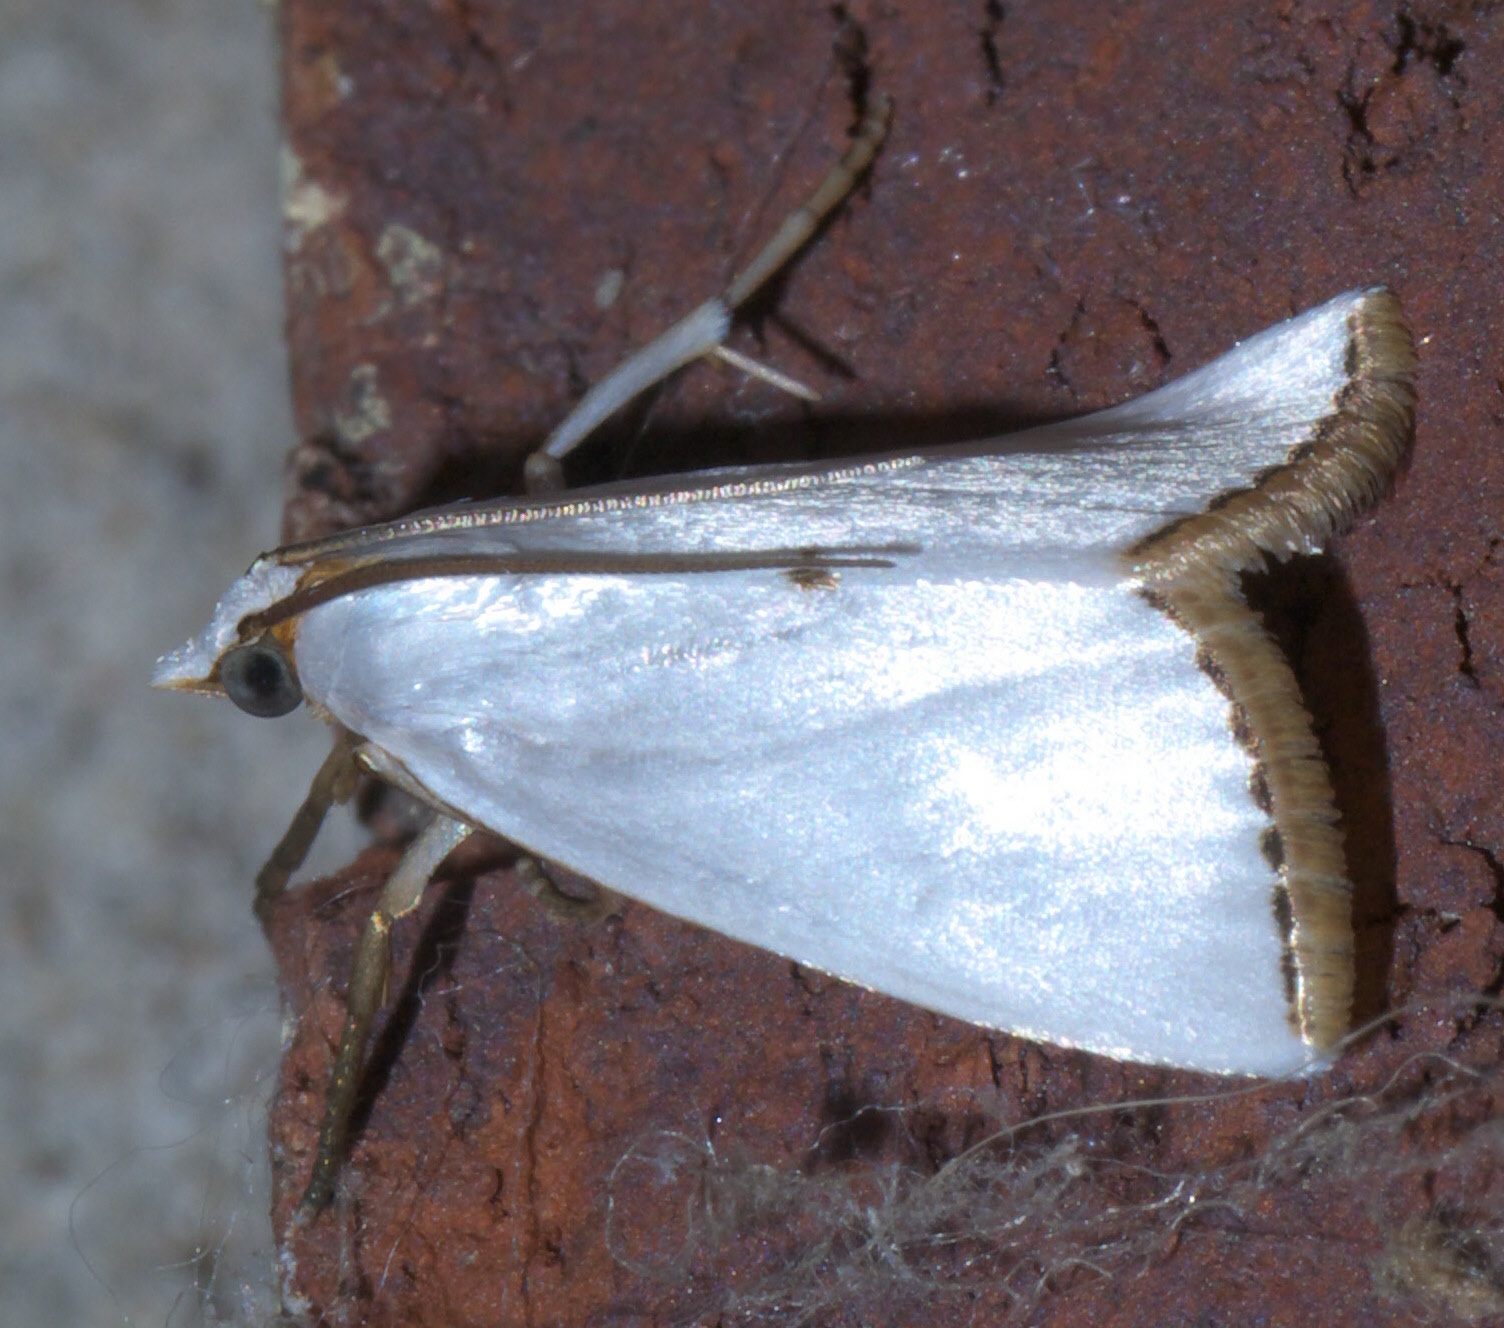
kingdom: Animalia
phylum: Arthropoda
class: Insecta
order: Lepidoptera
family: Crambidae
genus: Argyria
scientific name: Argyria nivalis
